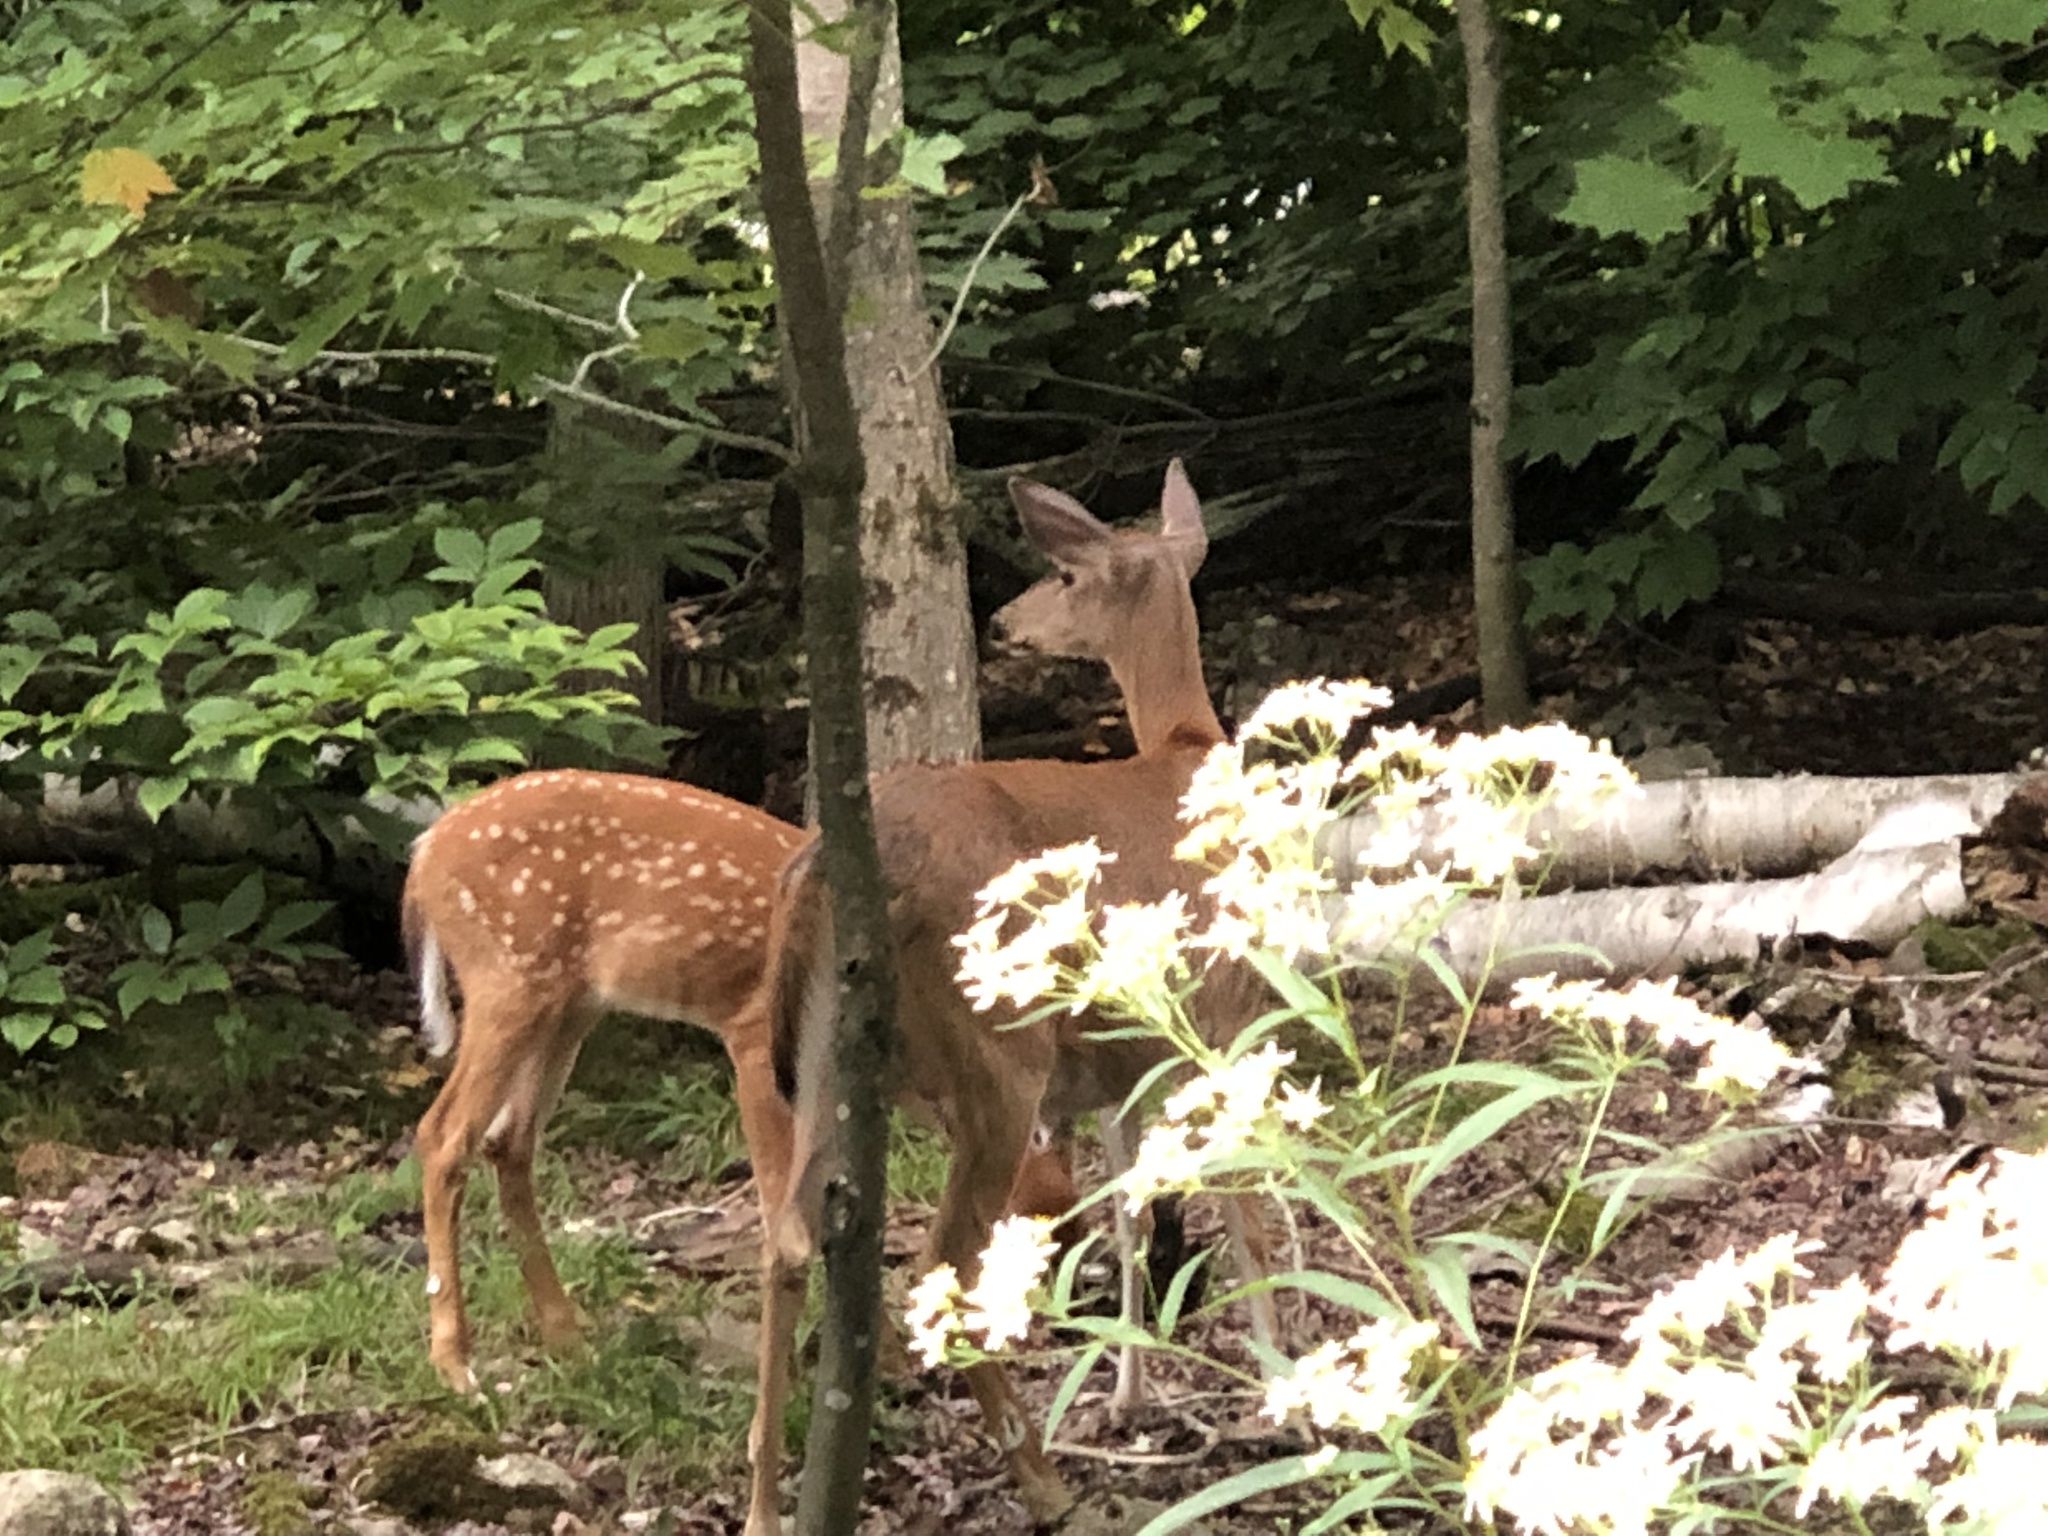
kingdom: Animalia
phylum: Chordata
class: Mammalia
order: Artiodactyla
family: Cervidae
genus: Odocoileus
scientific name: Odocoileus virginianus
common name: White-tailed deer
